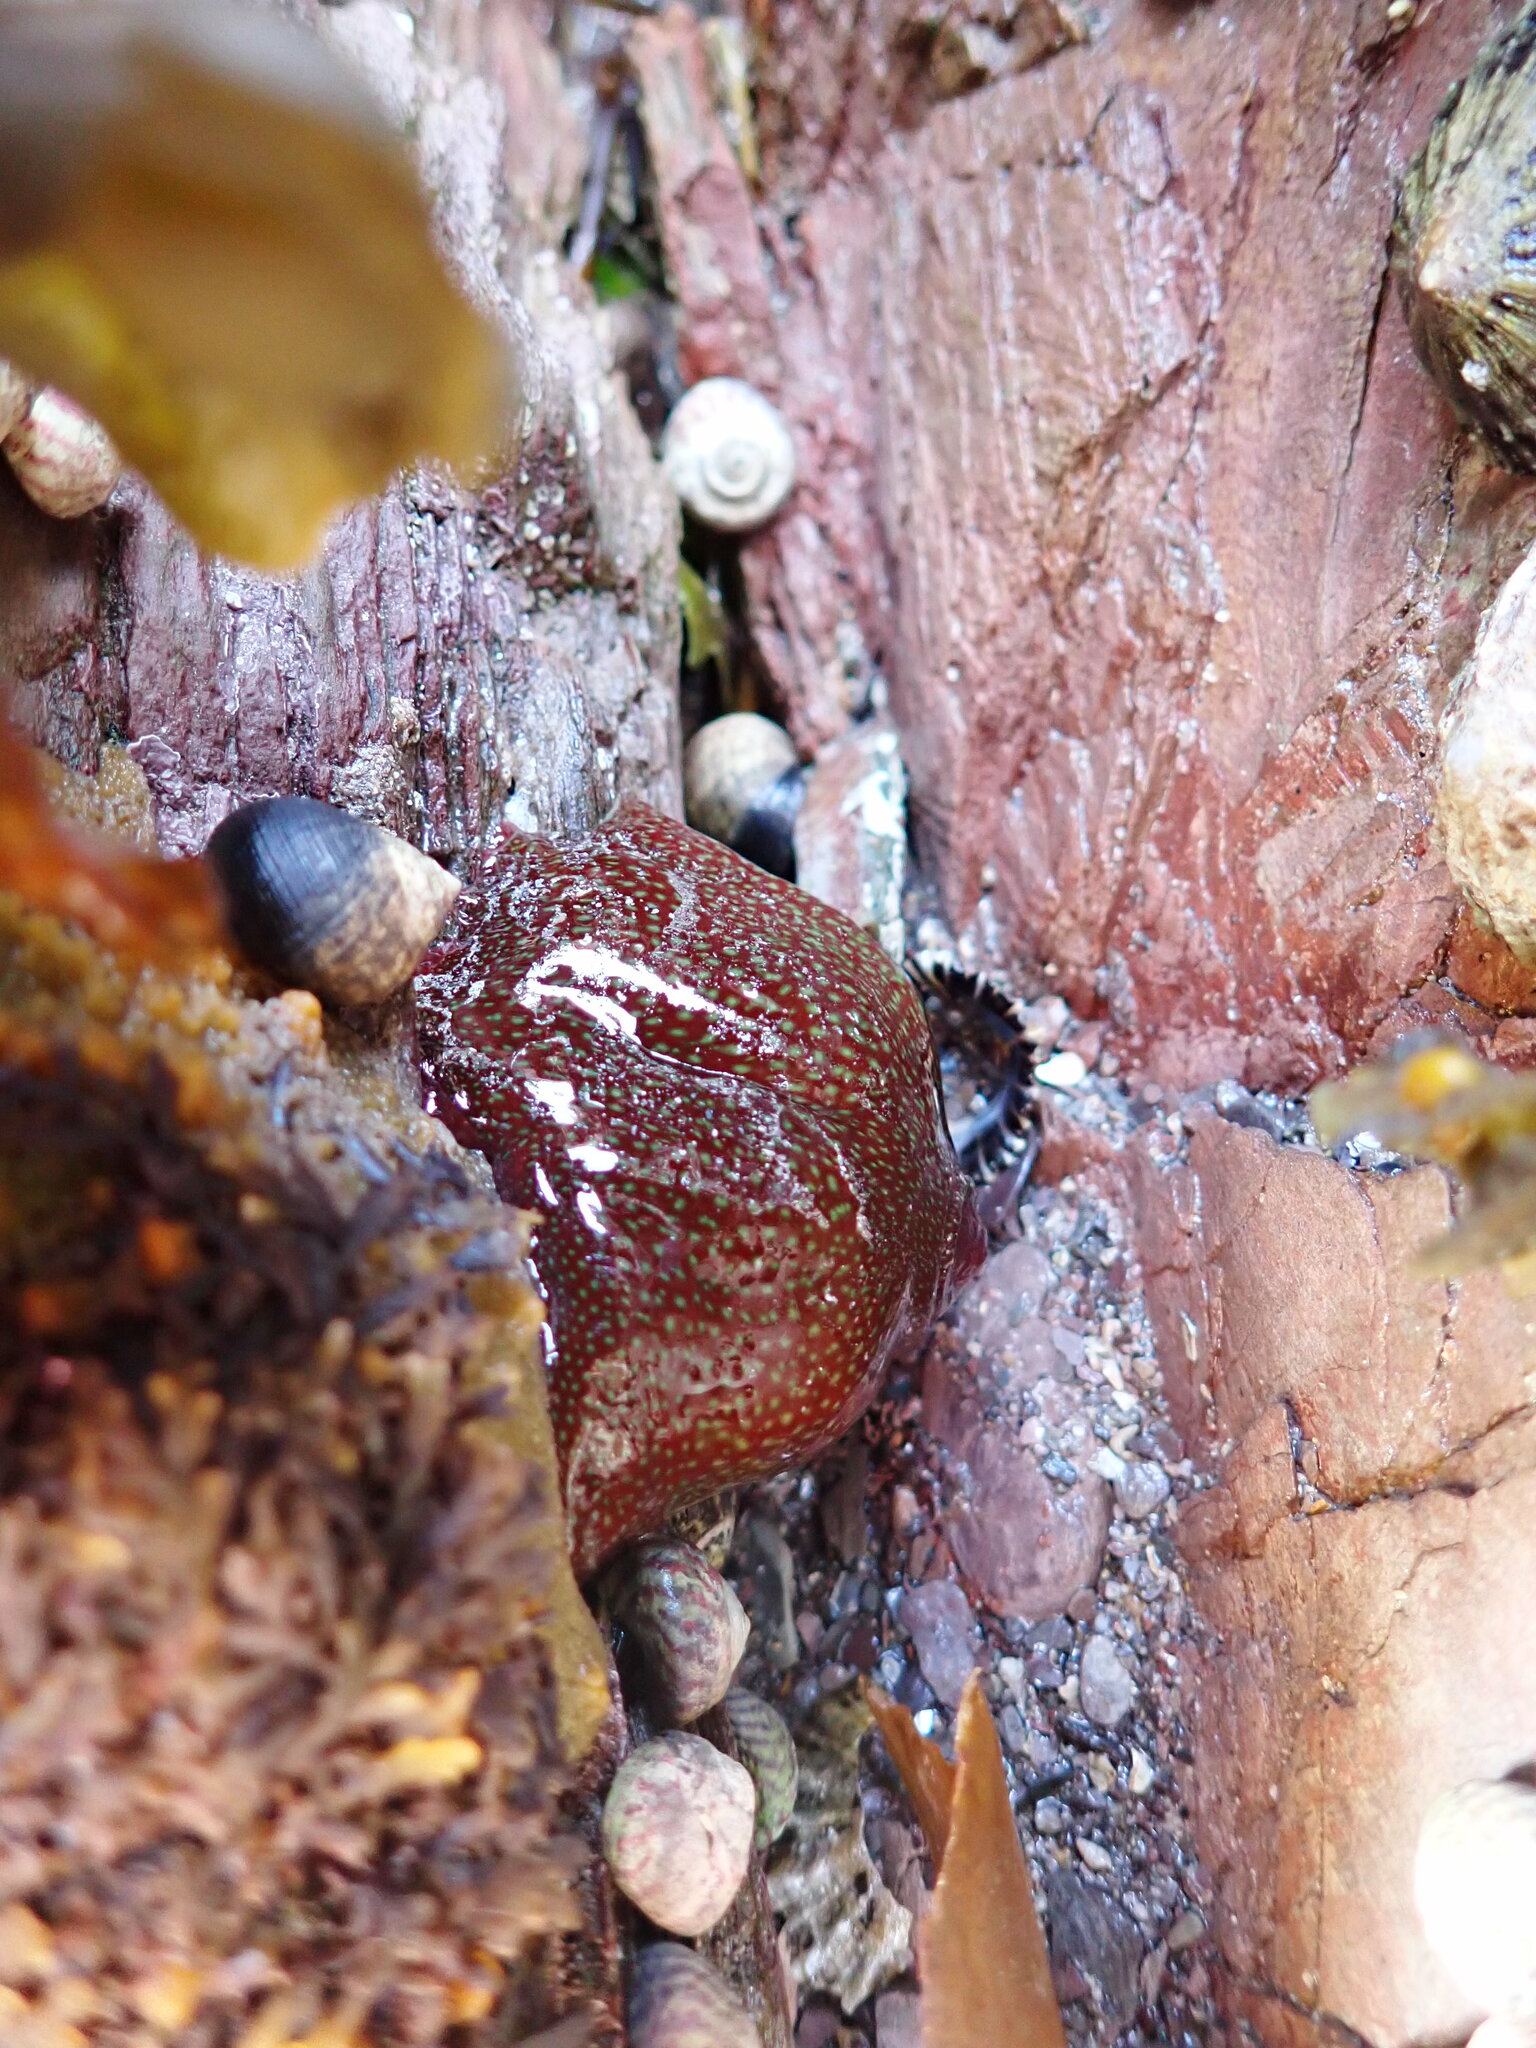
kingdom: Animalia
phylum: Cnidaria
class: Anthozoa
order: Actiniaria
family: Actiniidae
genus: Actinia
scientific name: Actinia fragacea
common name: Strawberry anemone
